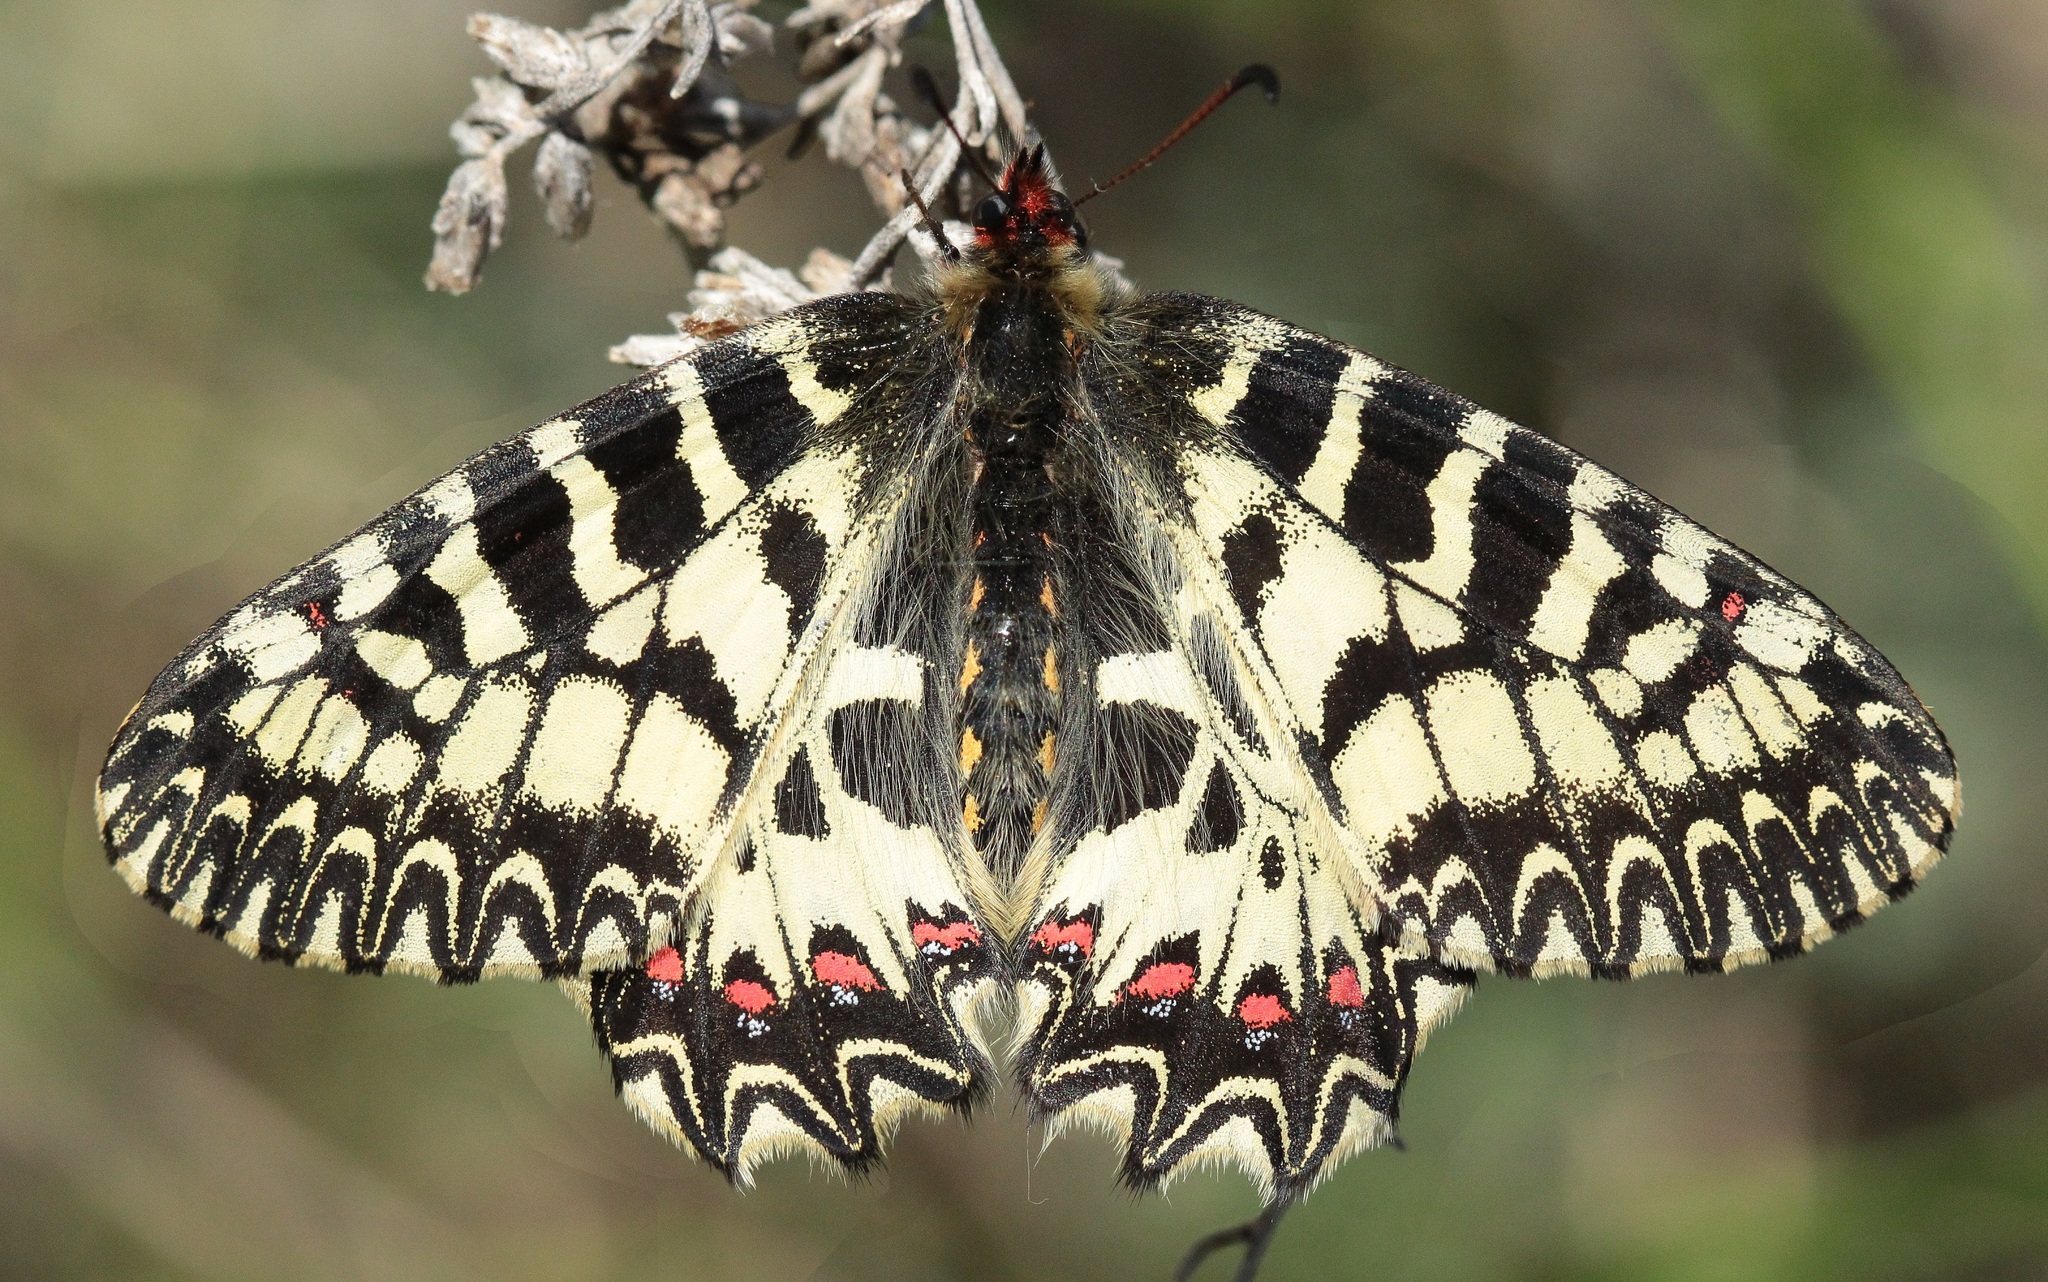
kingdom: Animalia
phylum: Arthropoda
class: Insecta
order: Lepidoptera
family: Papilionidae
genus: Zerynthia
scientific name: Zerynthia polyxena
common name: Southern festoon
